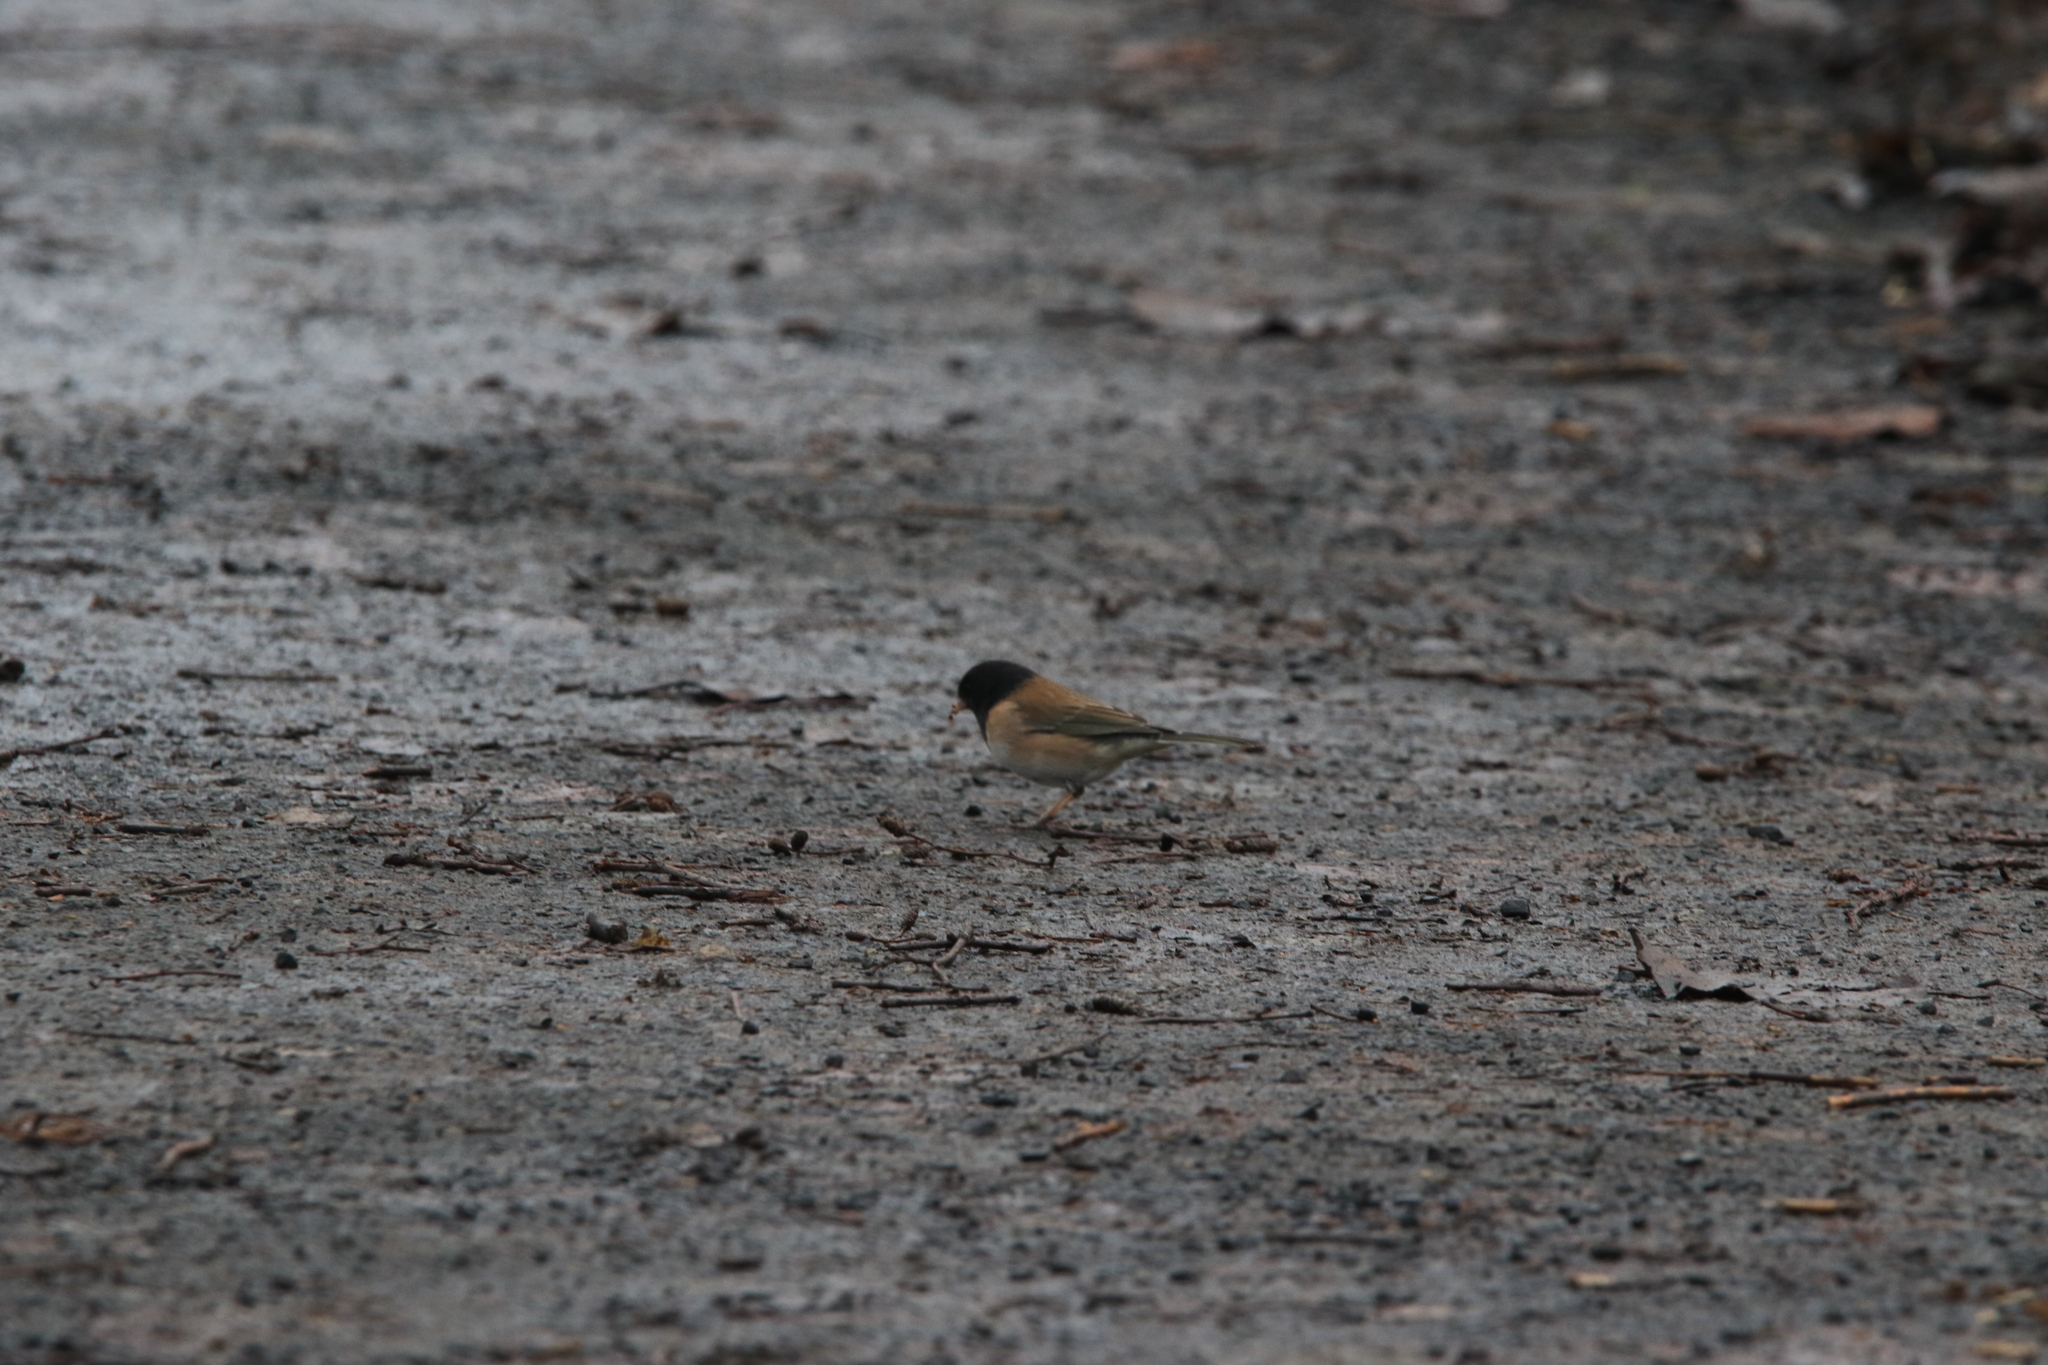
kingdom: Animalia
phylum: Chordata
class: Aves
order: Passeriformes
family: Passerellidae
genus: Junco
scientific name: Junco hyemalis
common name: Dark-eyed junco
